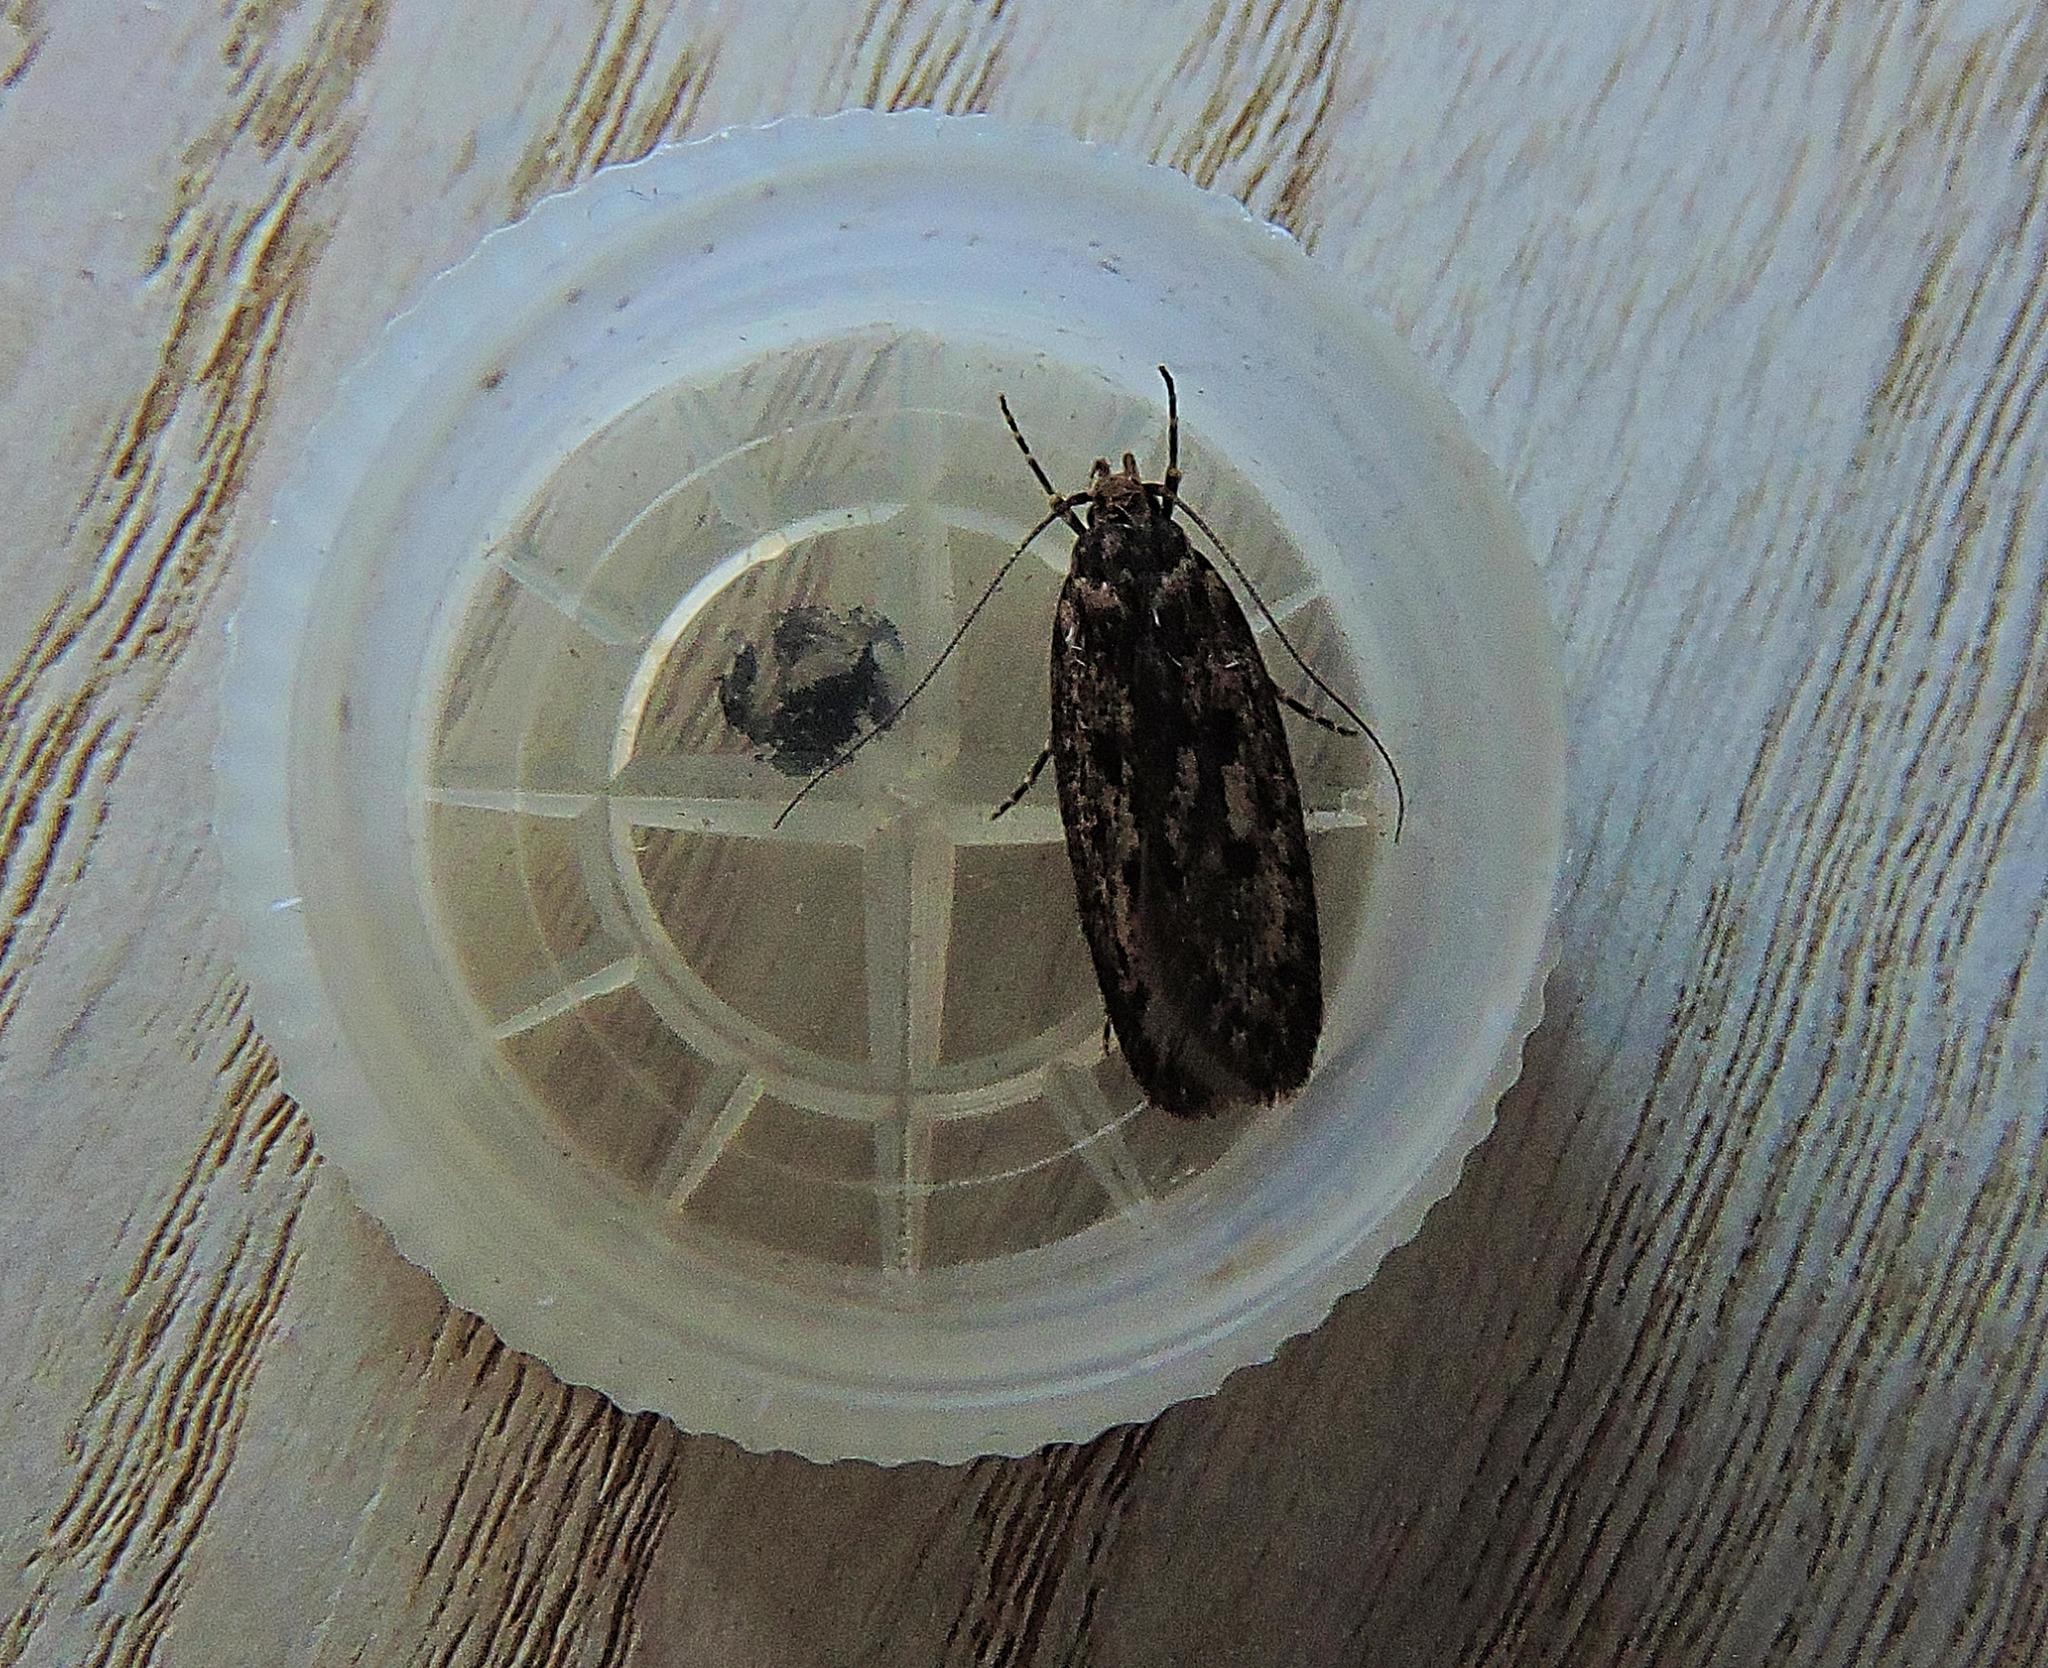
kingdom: Animalia
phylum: Arthropoda
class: Insecta
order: Lepidoptera
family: Oecophoridae
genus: Hofmannophila
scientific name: Hofmannophila pseudospretella
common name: Brown house moth
